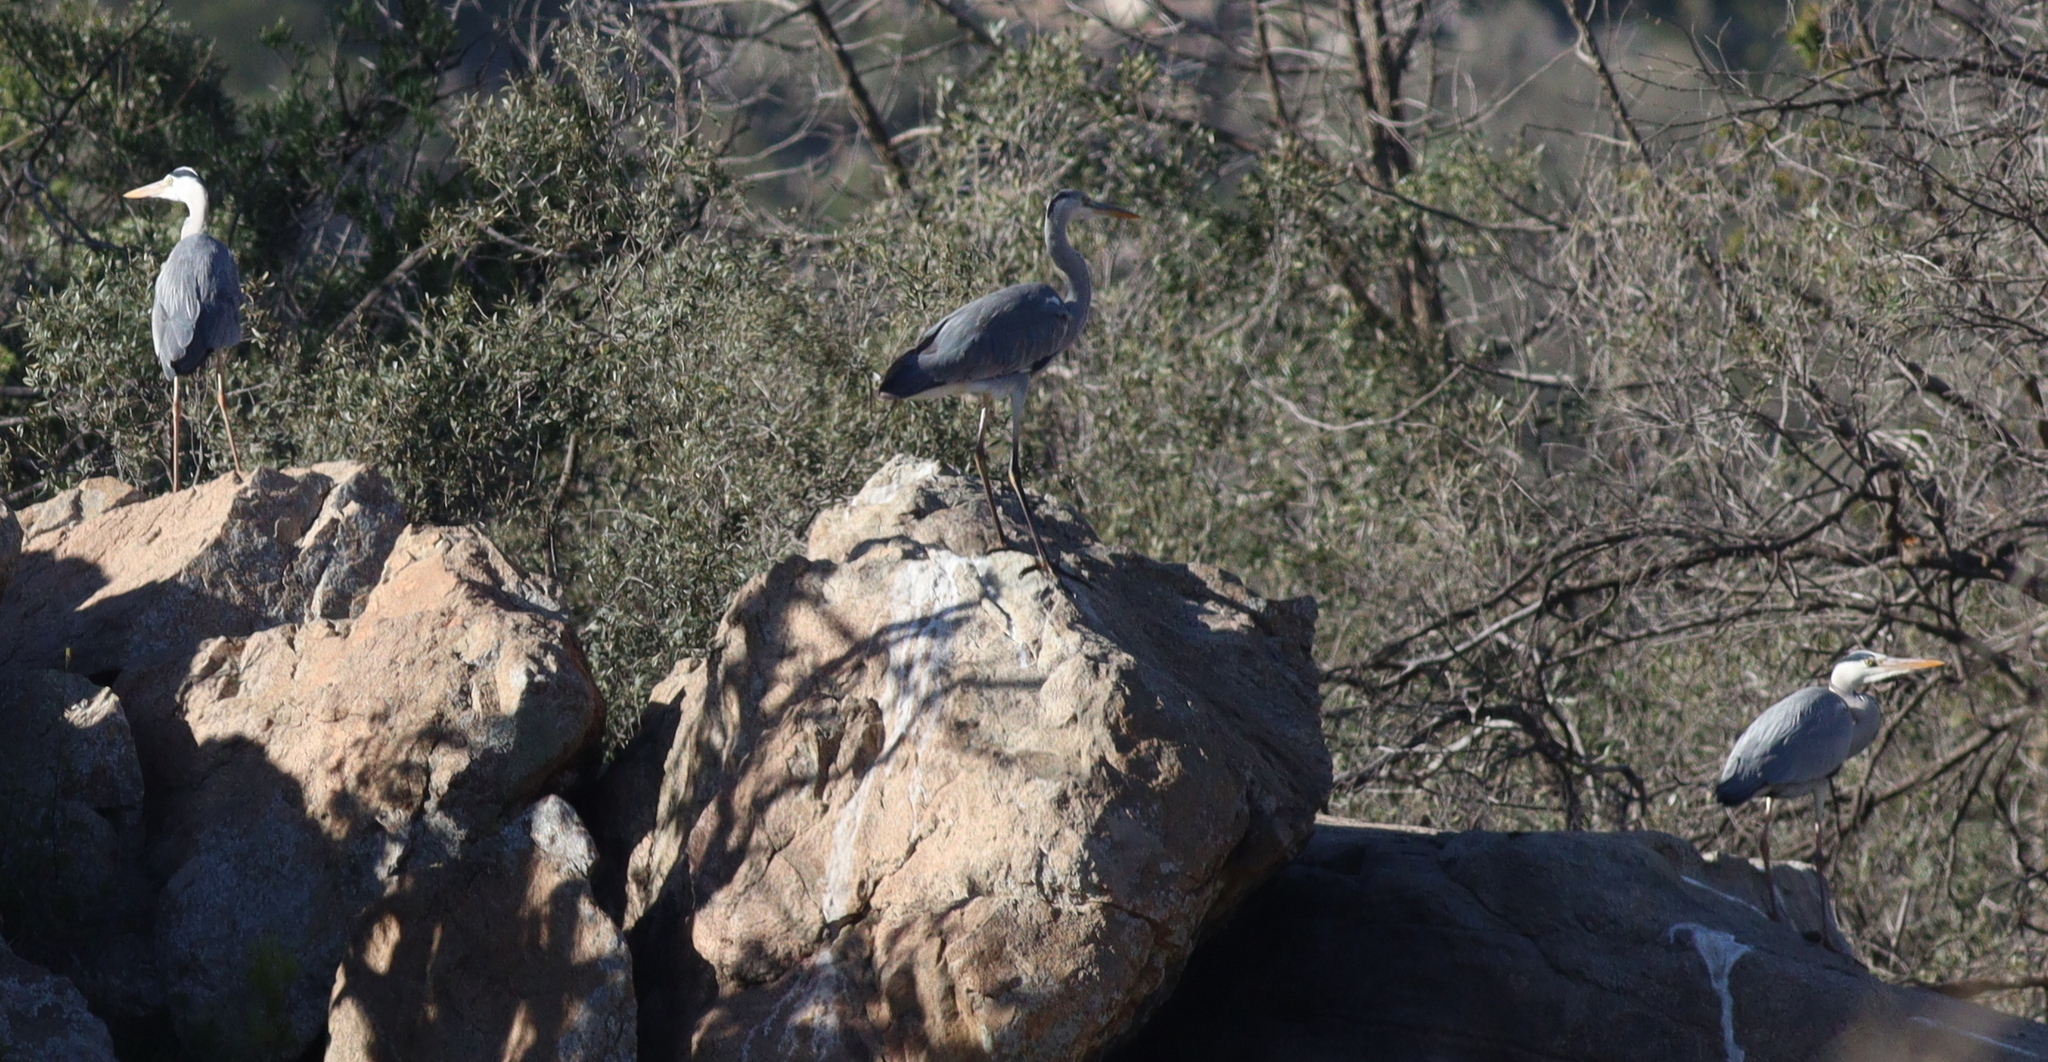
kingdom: Animalia
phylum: Chordata
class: Aves
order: Pelecaniformes
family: Ardeidae
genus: Ardea
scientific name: Ardea cinerea
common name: Grey heron
